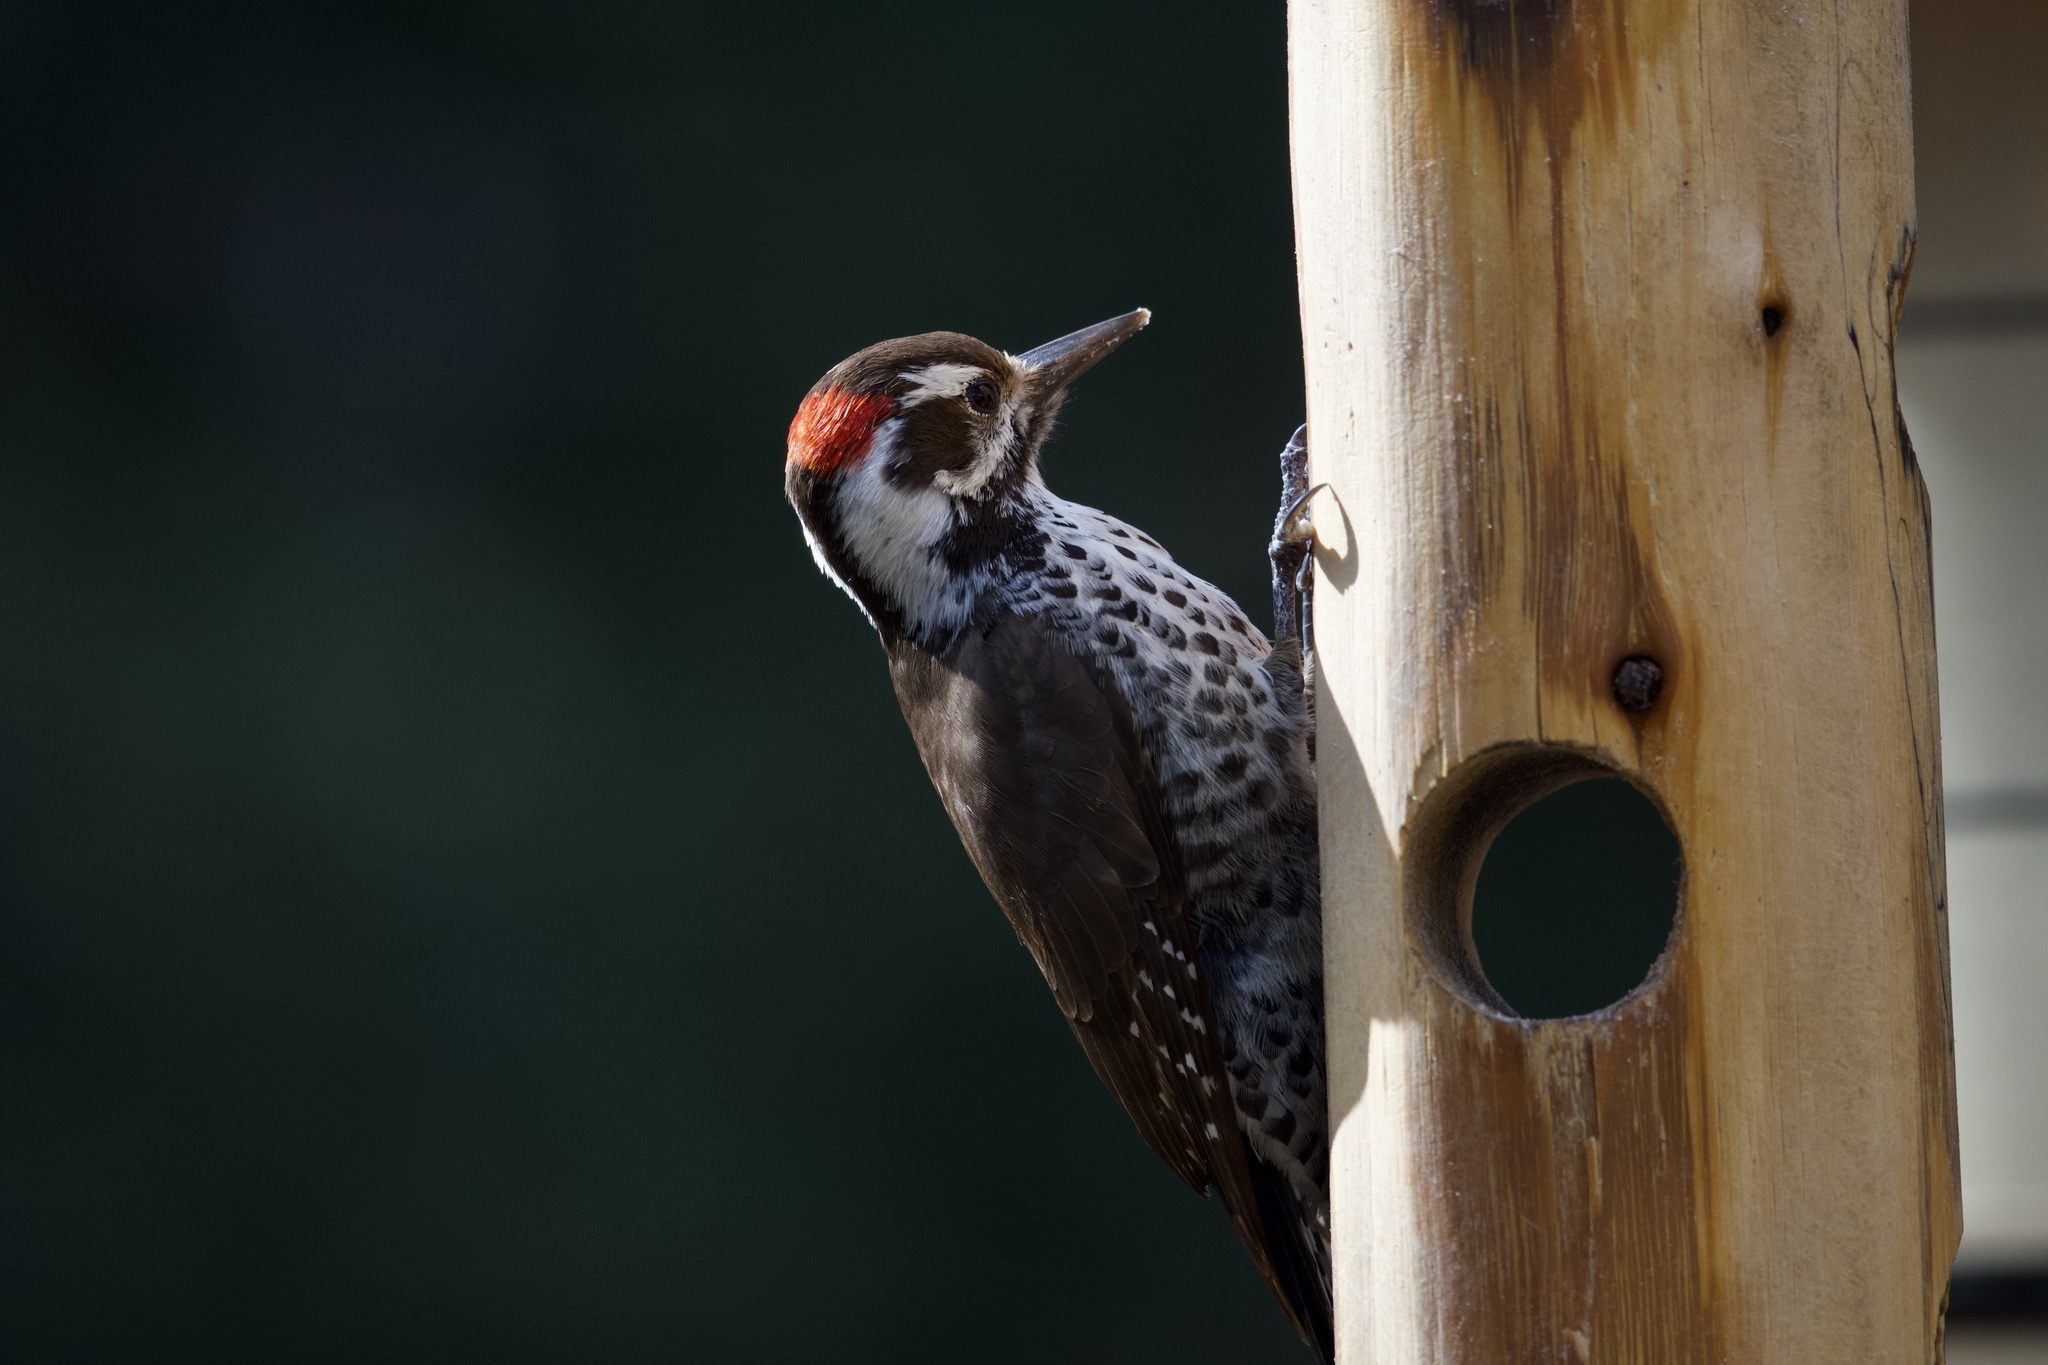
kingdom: Animalia
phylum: Chordata
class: Aves
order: Piciformes
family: Picidae
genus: Leuconotopicus
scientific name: Leuconotopicus arizonae
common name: Arizona woodpecker
